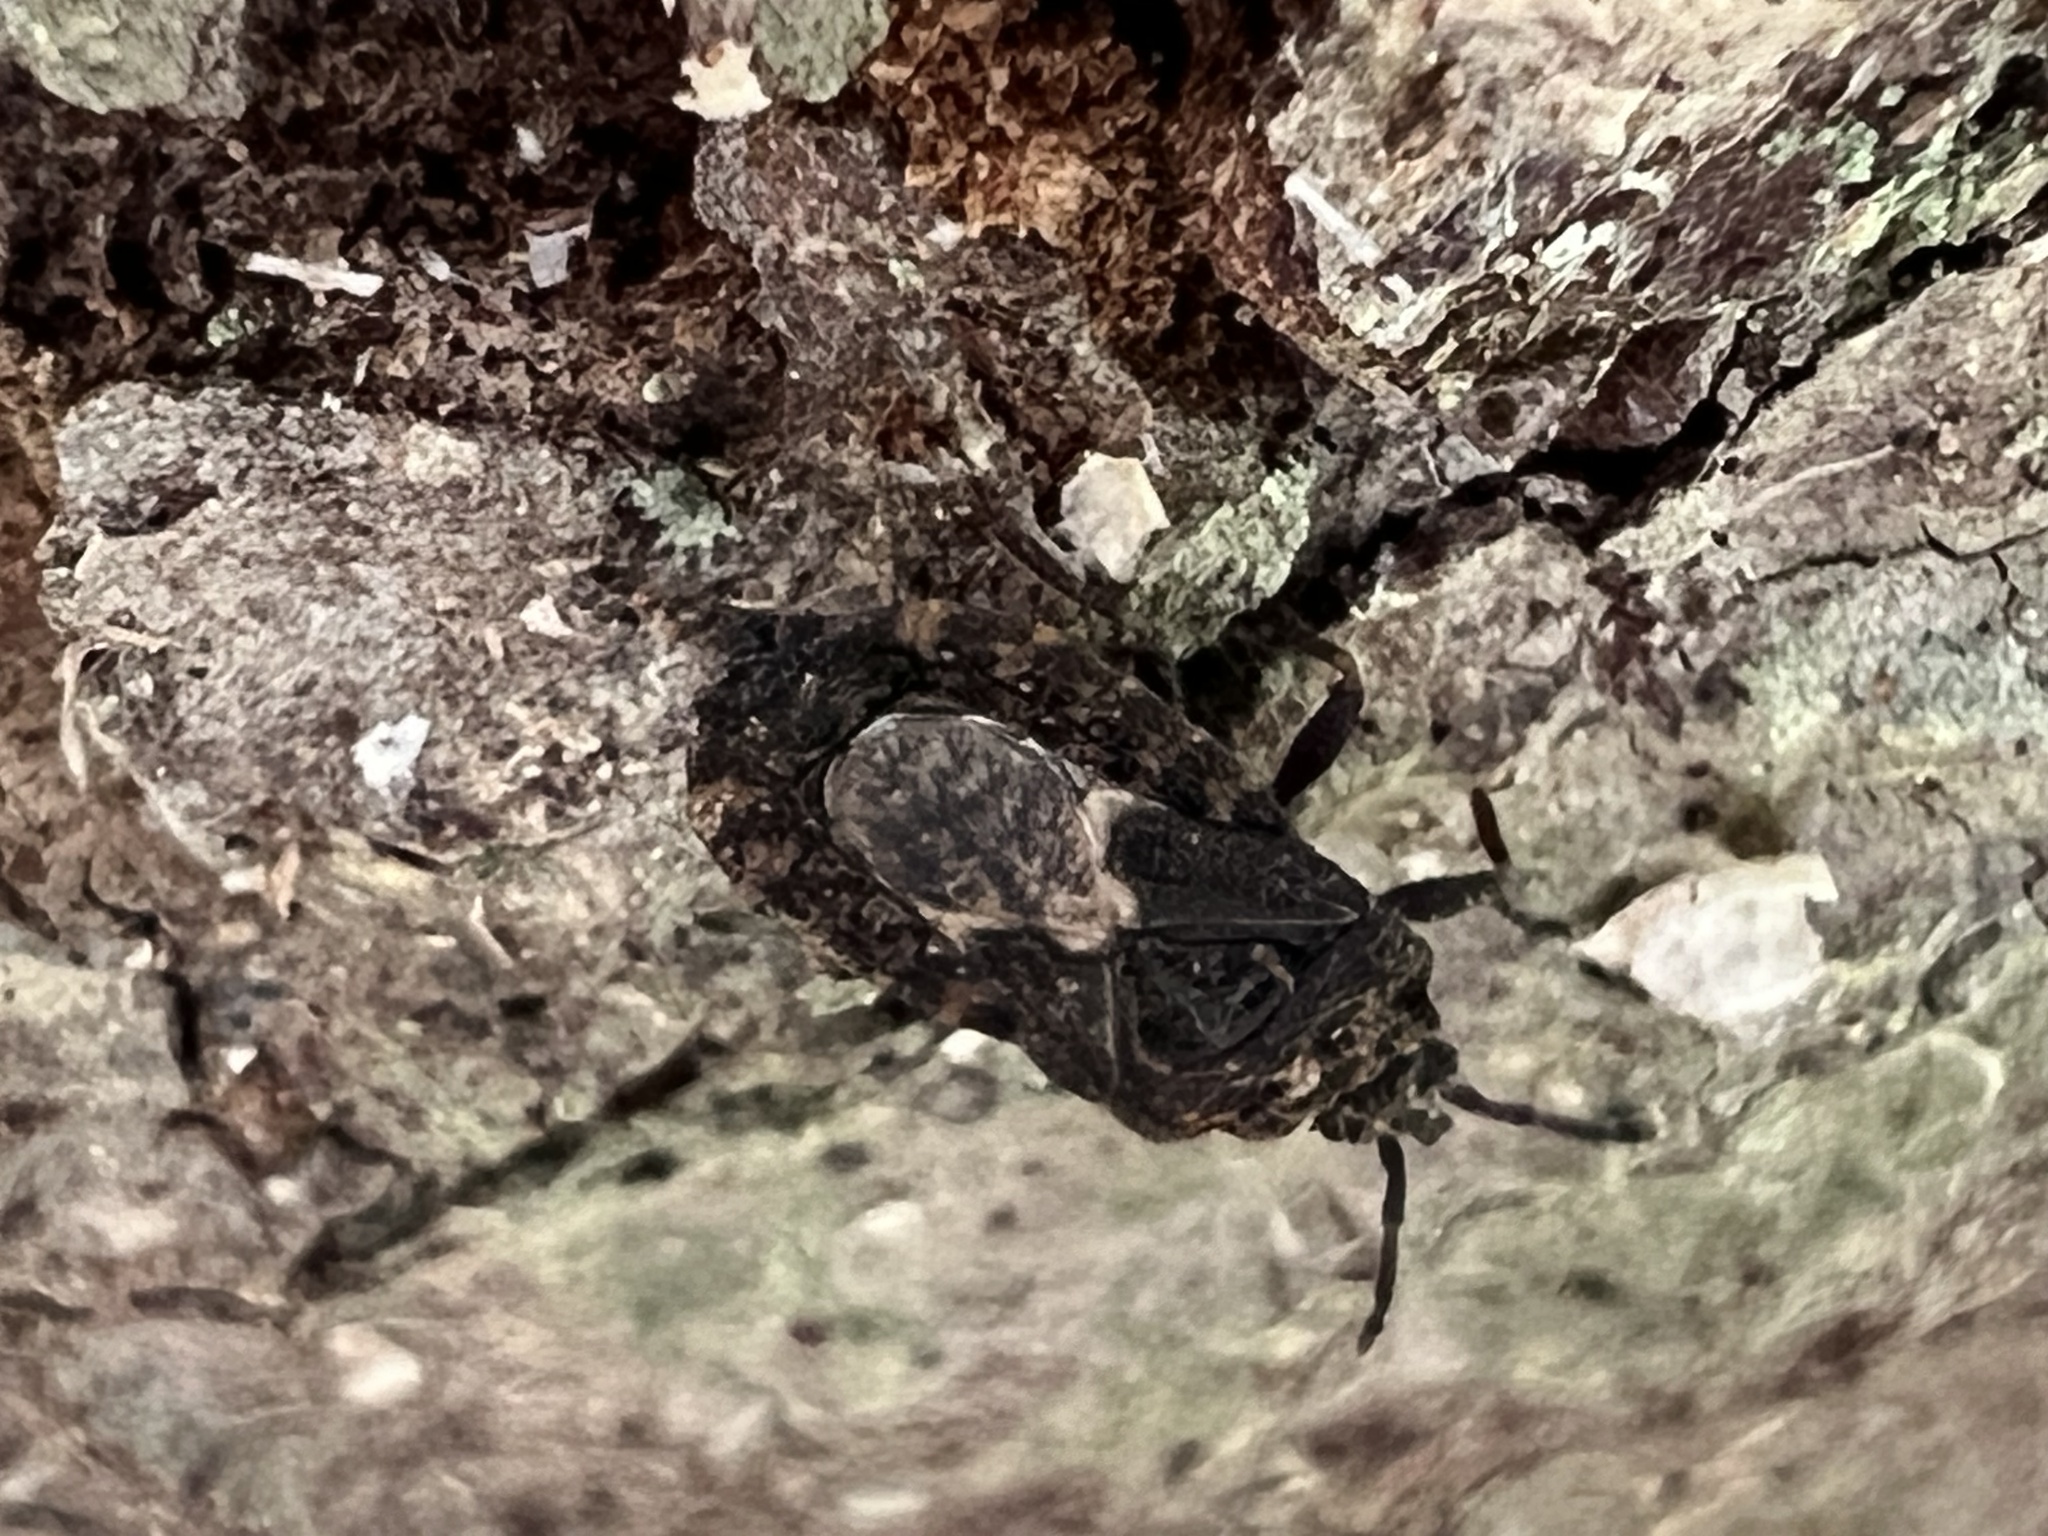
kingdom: Animalia
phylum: Arthropoda
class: Insecta
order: Hemiptera
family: Aradidae
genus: Mezira
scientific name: Mezira
